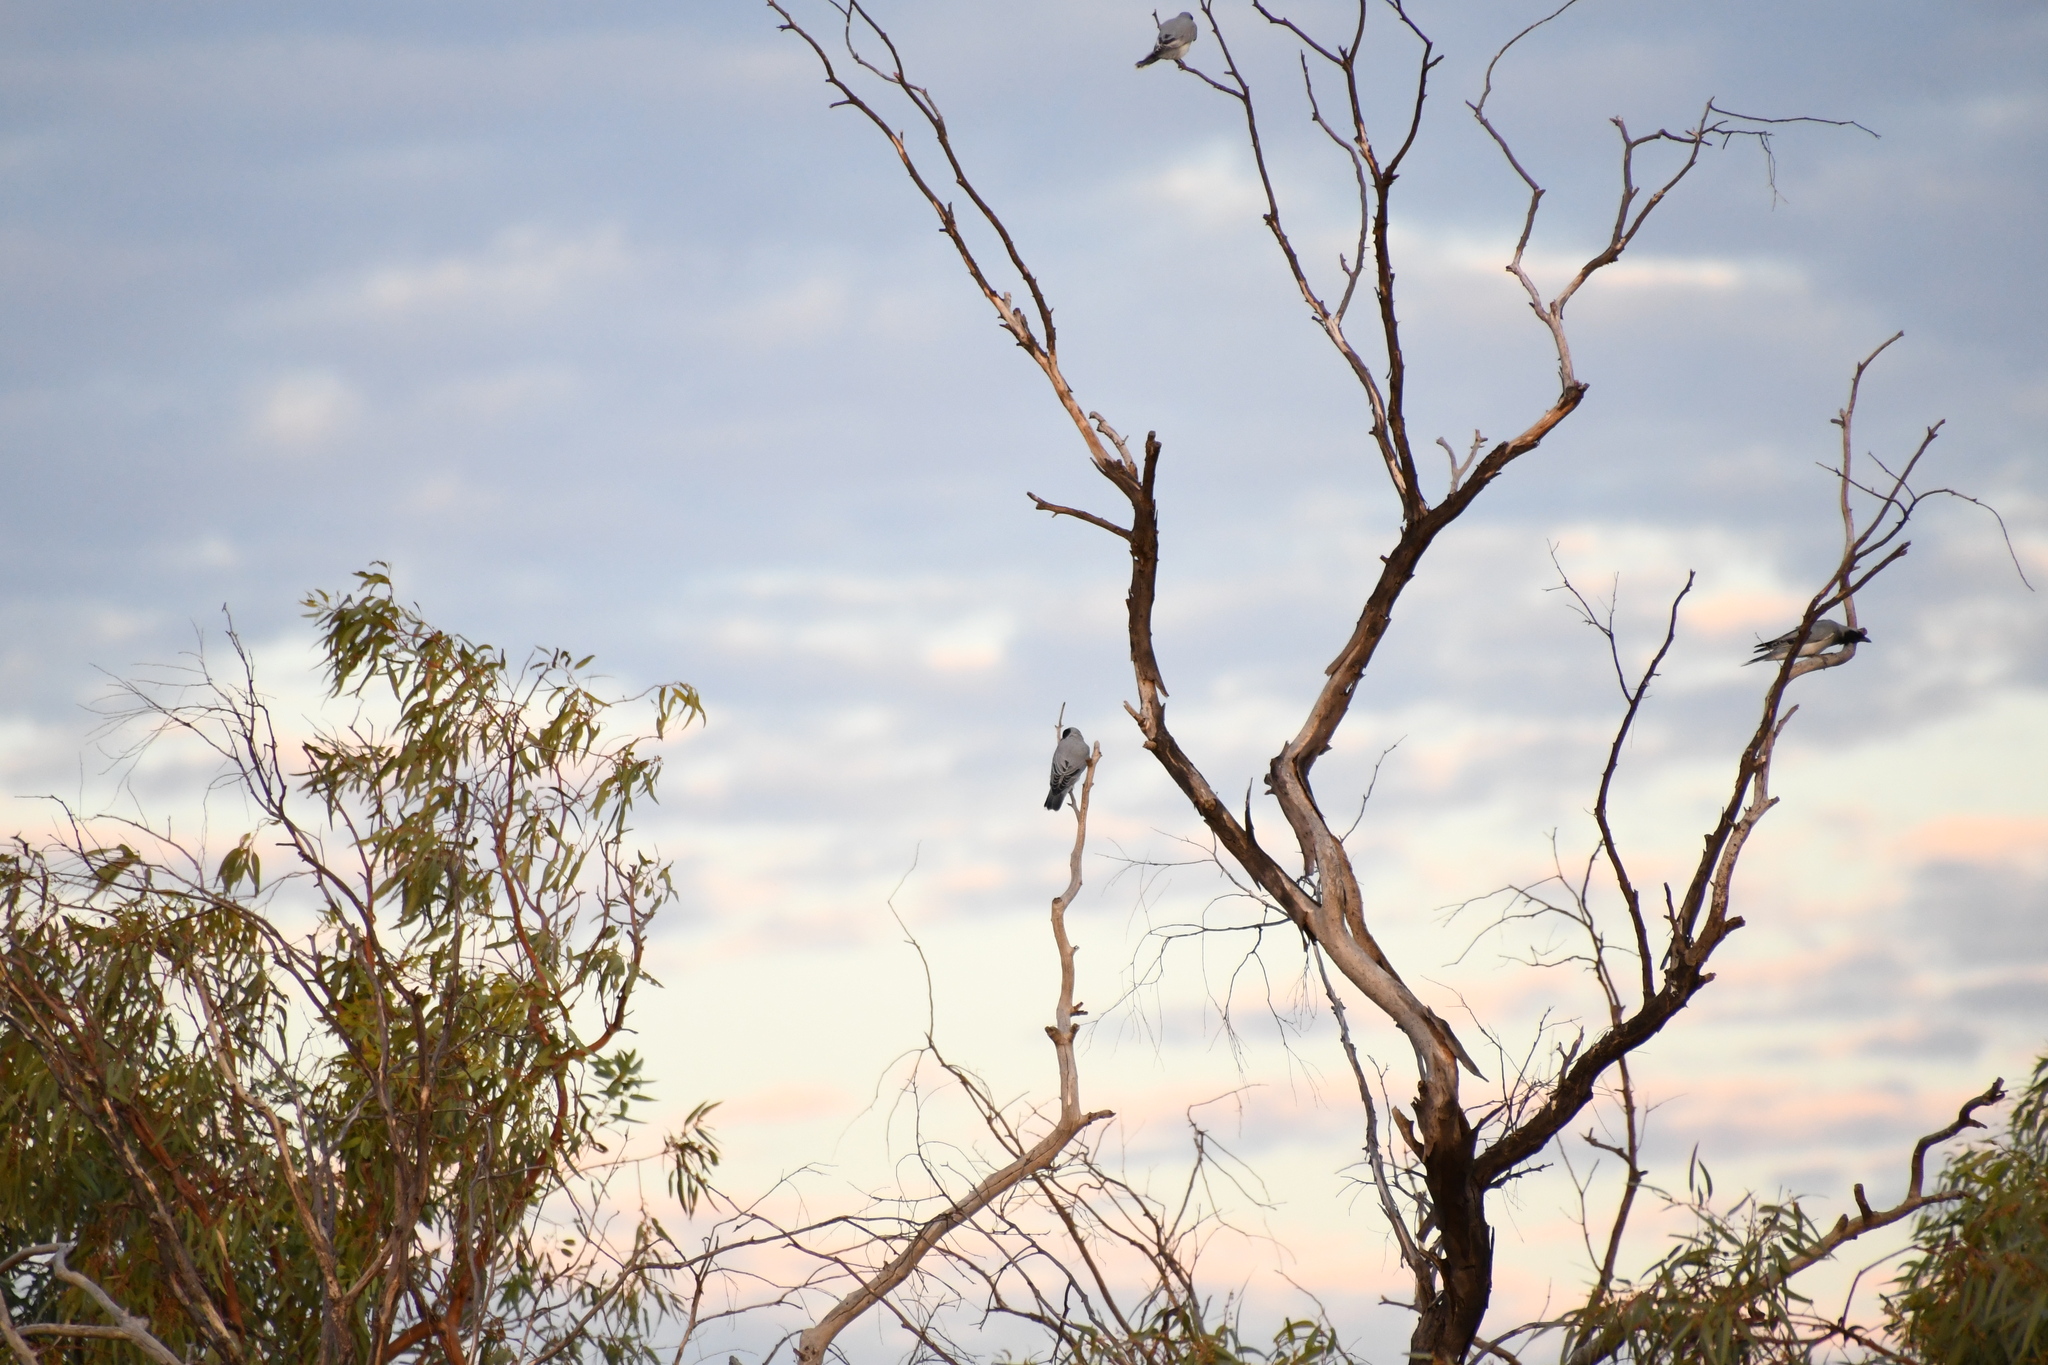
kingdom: Animalia
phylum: Chordata
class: Aves
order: Passeriformes
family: Campephagidae
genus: Coracina
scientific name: Coracina novaehollandiae
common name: Black-faced cuckooshrike
